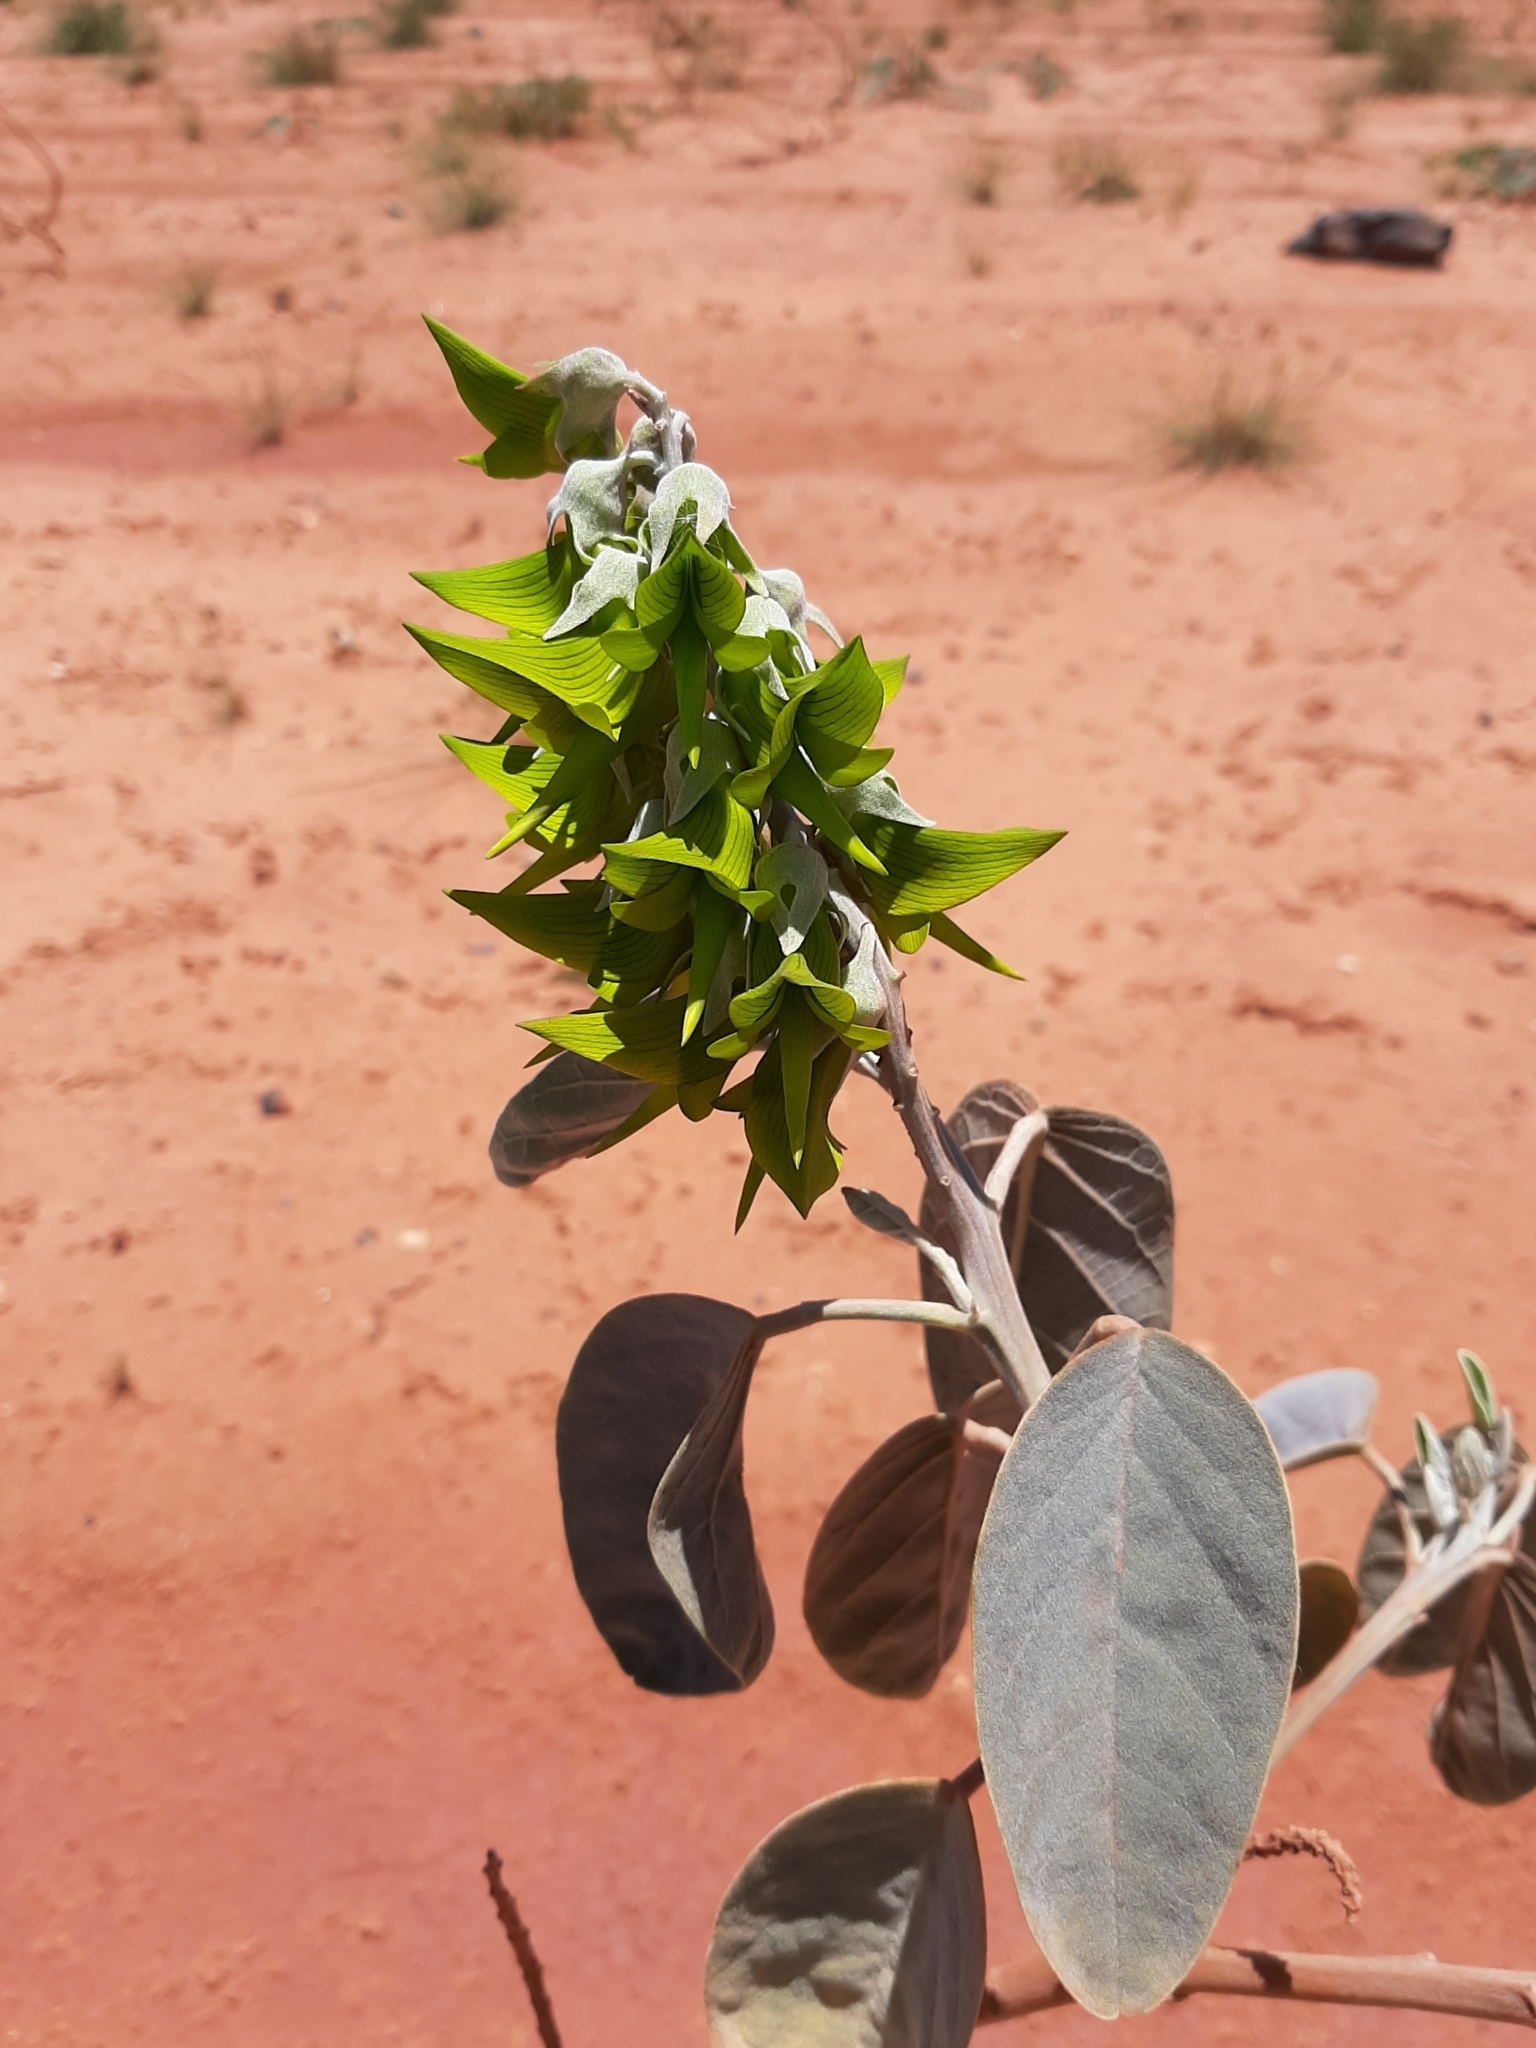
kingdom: Plantae
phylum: Tracheophyta
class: Magnoliopsida
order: Fabales
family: Fabaceae
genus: Crotalaria
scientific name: Crotalaria cunninghamii
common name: Birdflower rattlepod
